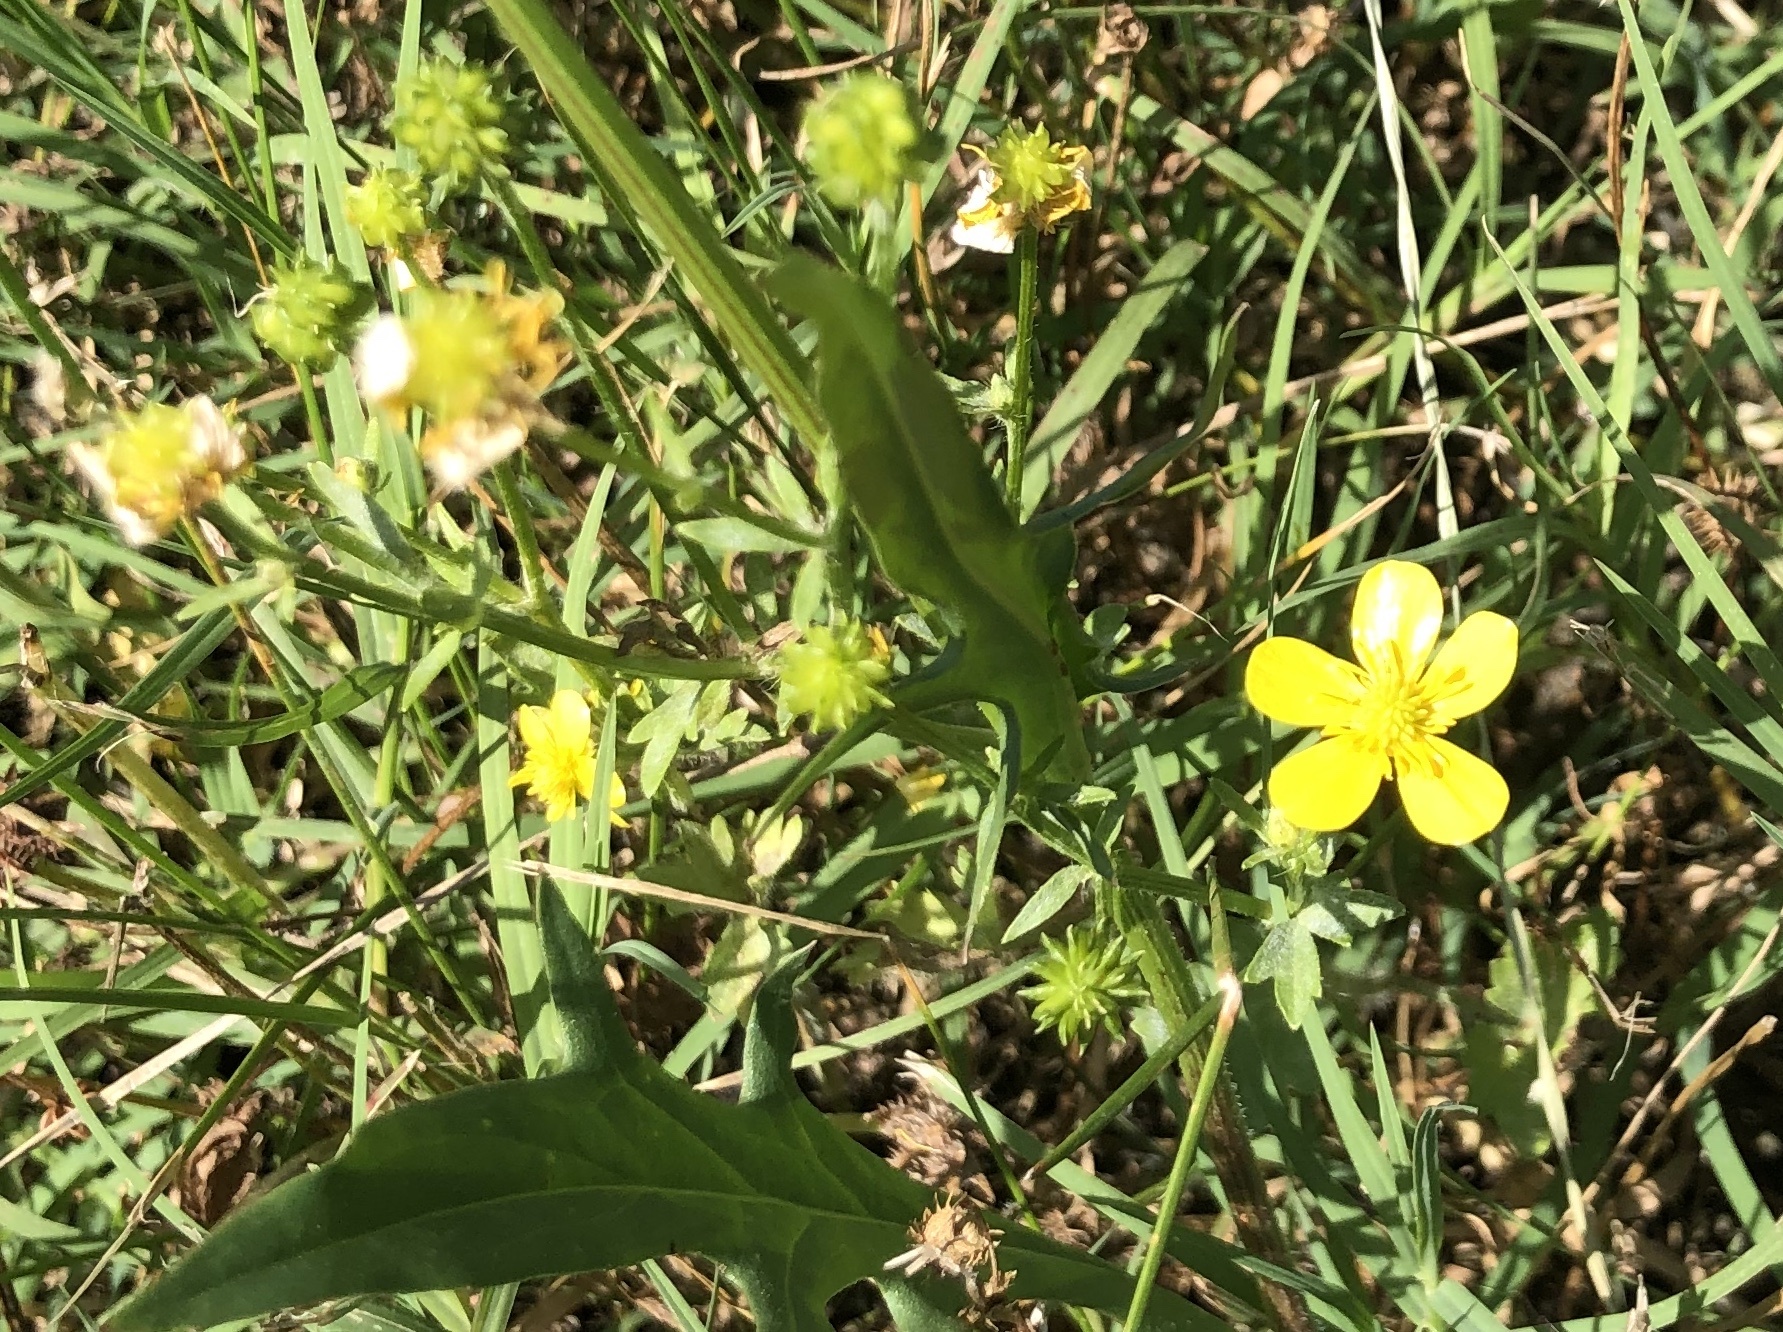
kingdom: Plantae
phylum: Tracheophyta
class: Magnoliopsida
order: Ranunculales
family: Ranunculaceae
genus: Ranunculus
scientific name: Ranunculus muricatus
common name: Rough-fruited buttercup
